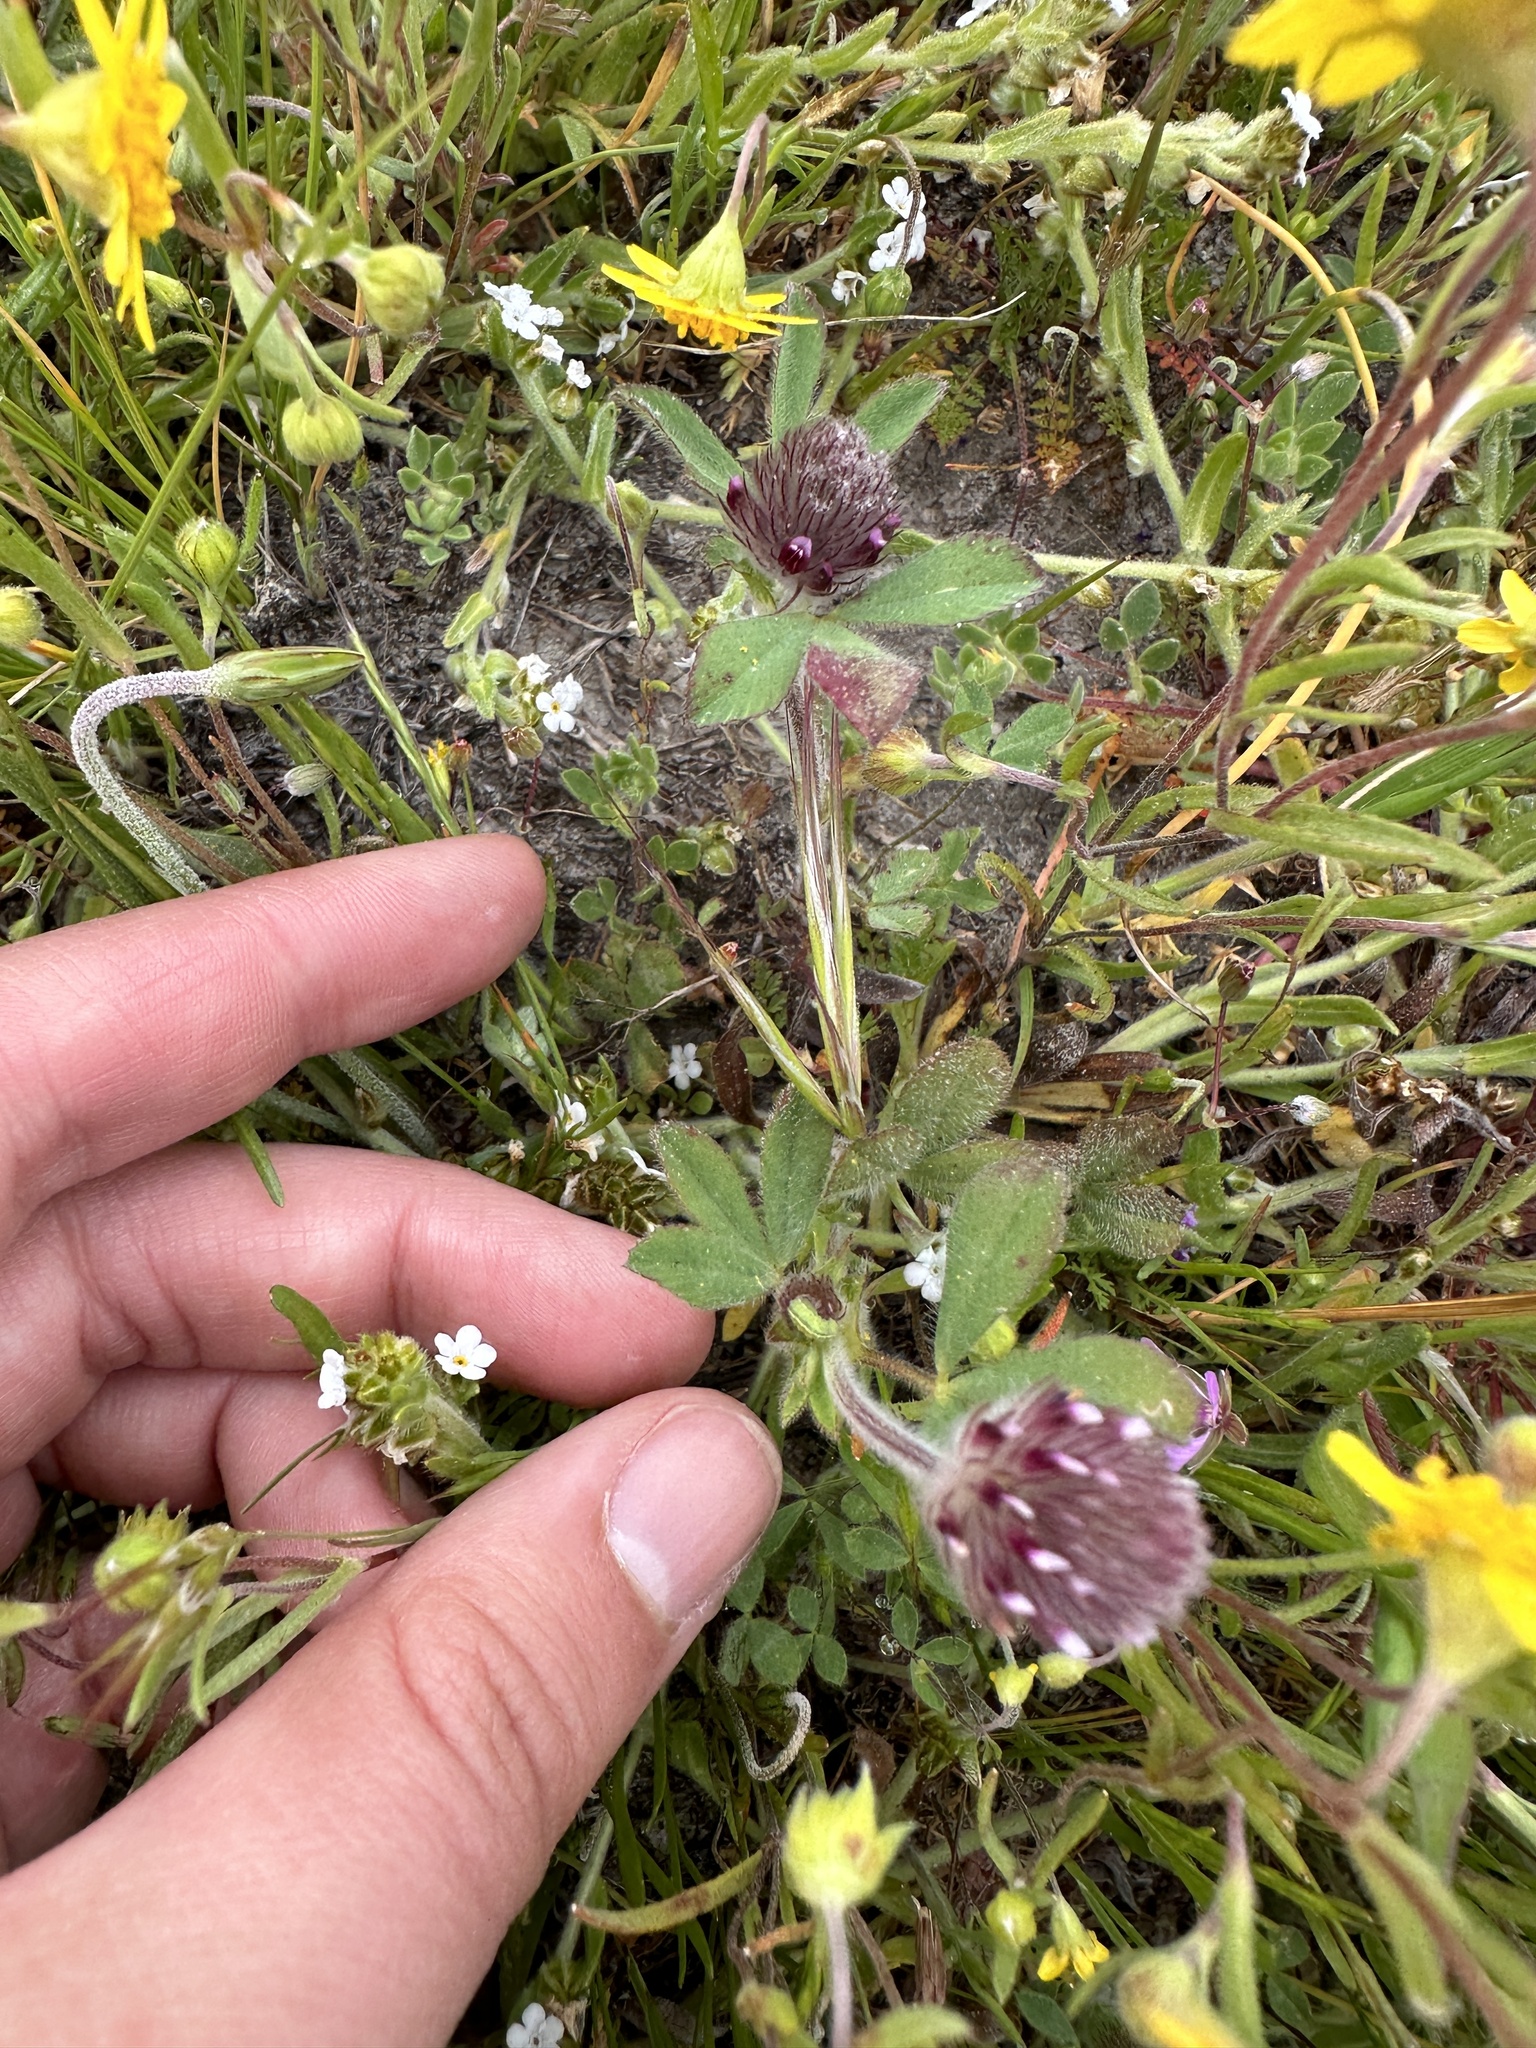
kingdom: Plantae
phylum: Tracheophyta
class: Magnoliopsida
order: Fabales
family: Fabaceae
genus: Trifolium
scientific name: Trifolium albopurpureum
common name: Rancheria clover
